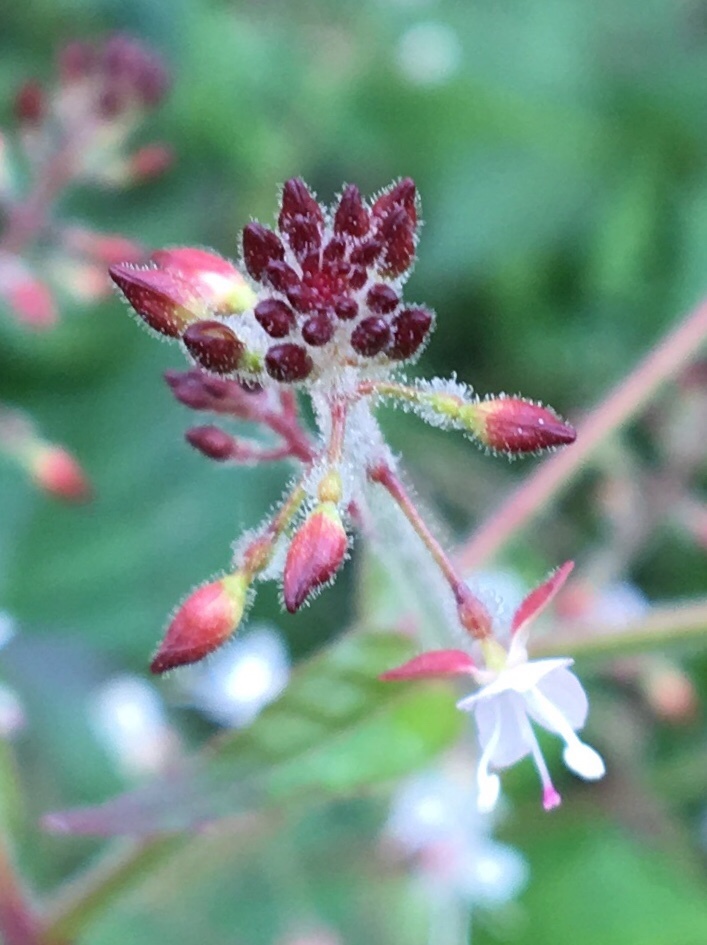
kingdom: Plantae
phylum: Tracheophyta
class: Magnoliopsida
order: Myrtales
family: Onagraceae
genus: Circaea
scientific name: Circaea lutetiana
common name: Enchanter's-nightshade
